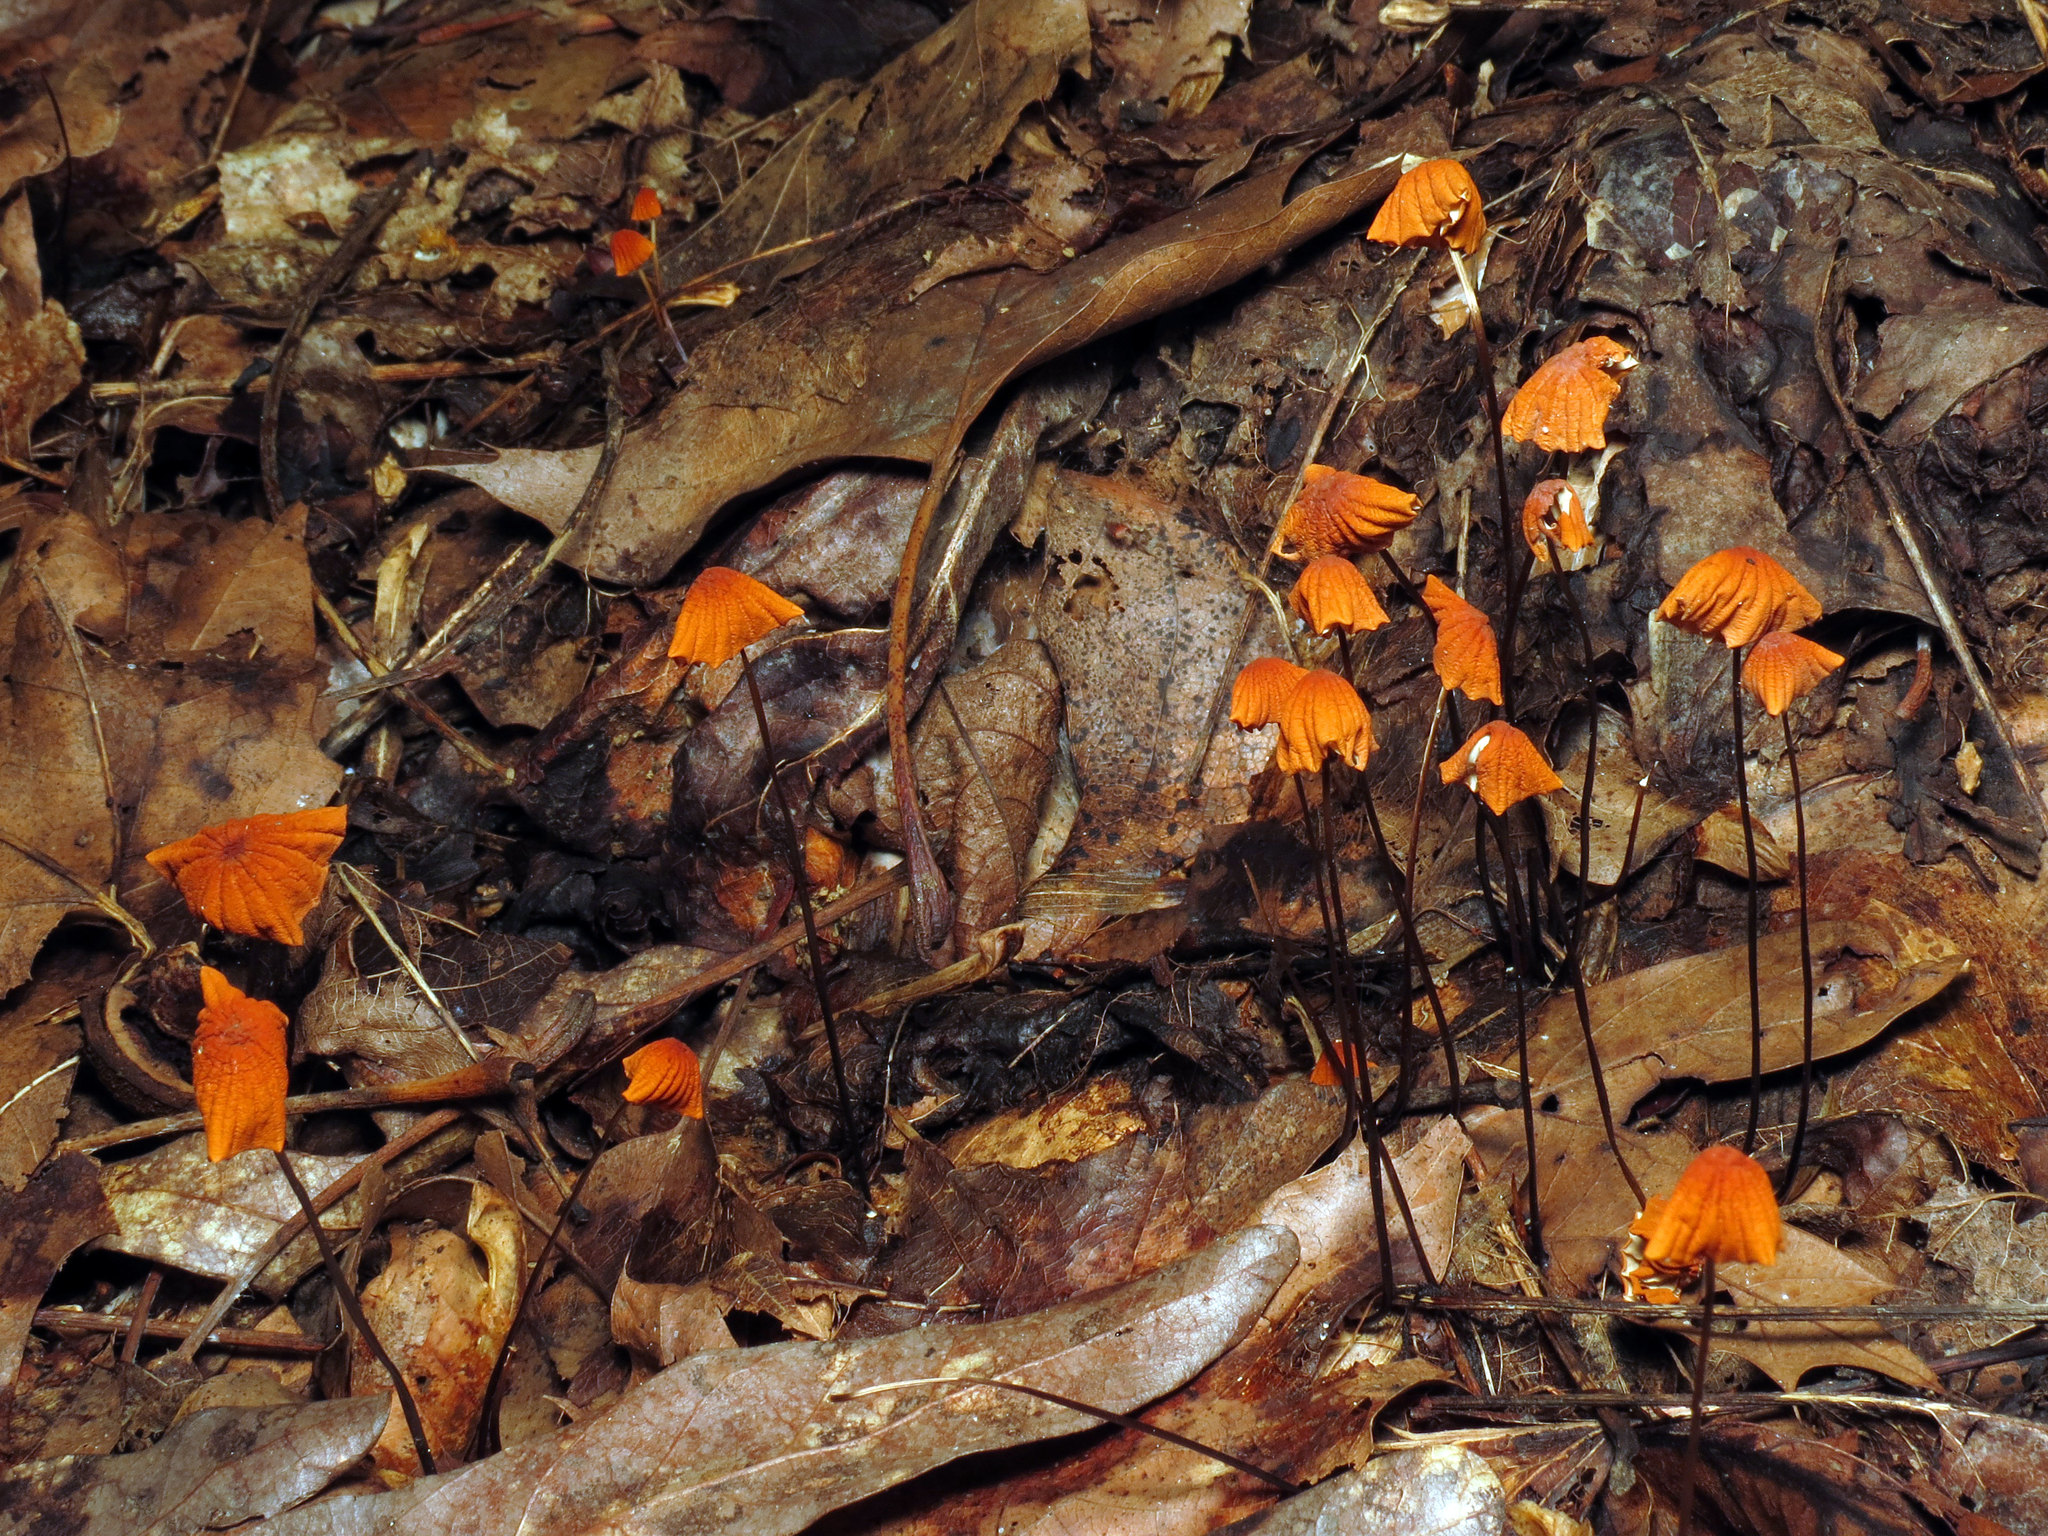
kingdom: Fungi
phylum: Basidiomycota
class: Agaricomycetes
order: Agaricales
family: Marasmiaceae
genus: Marasmius
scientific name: Marasmius siccus
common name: Orange pinwheel
